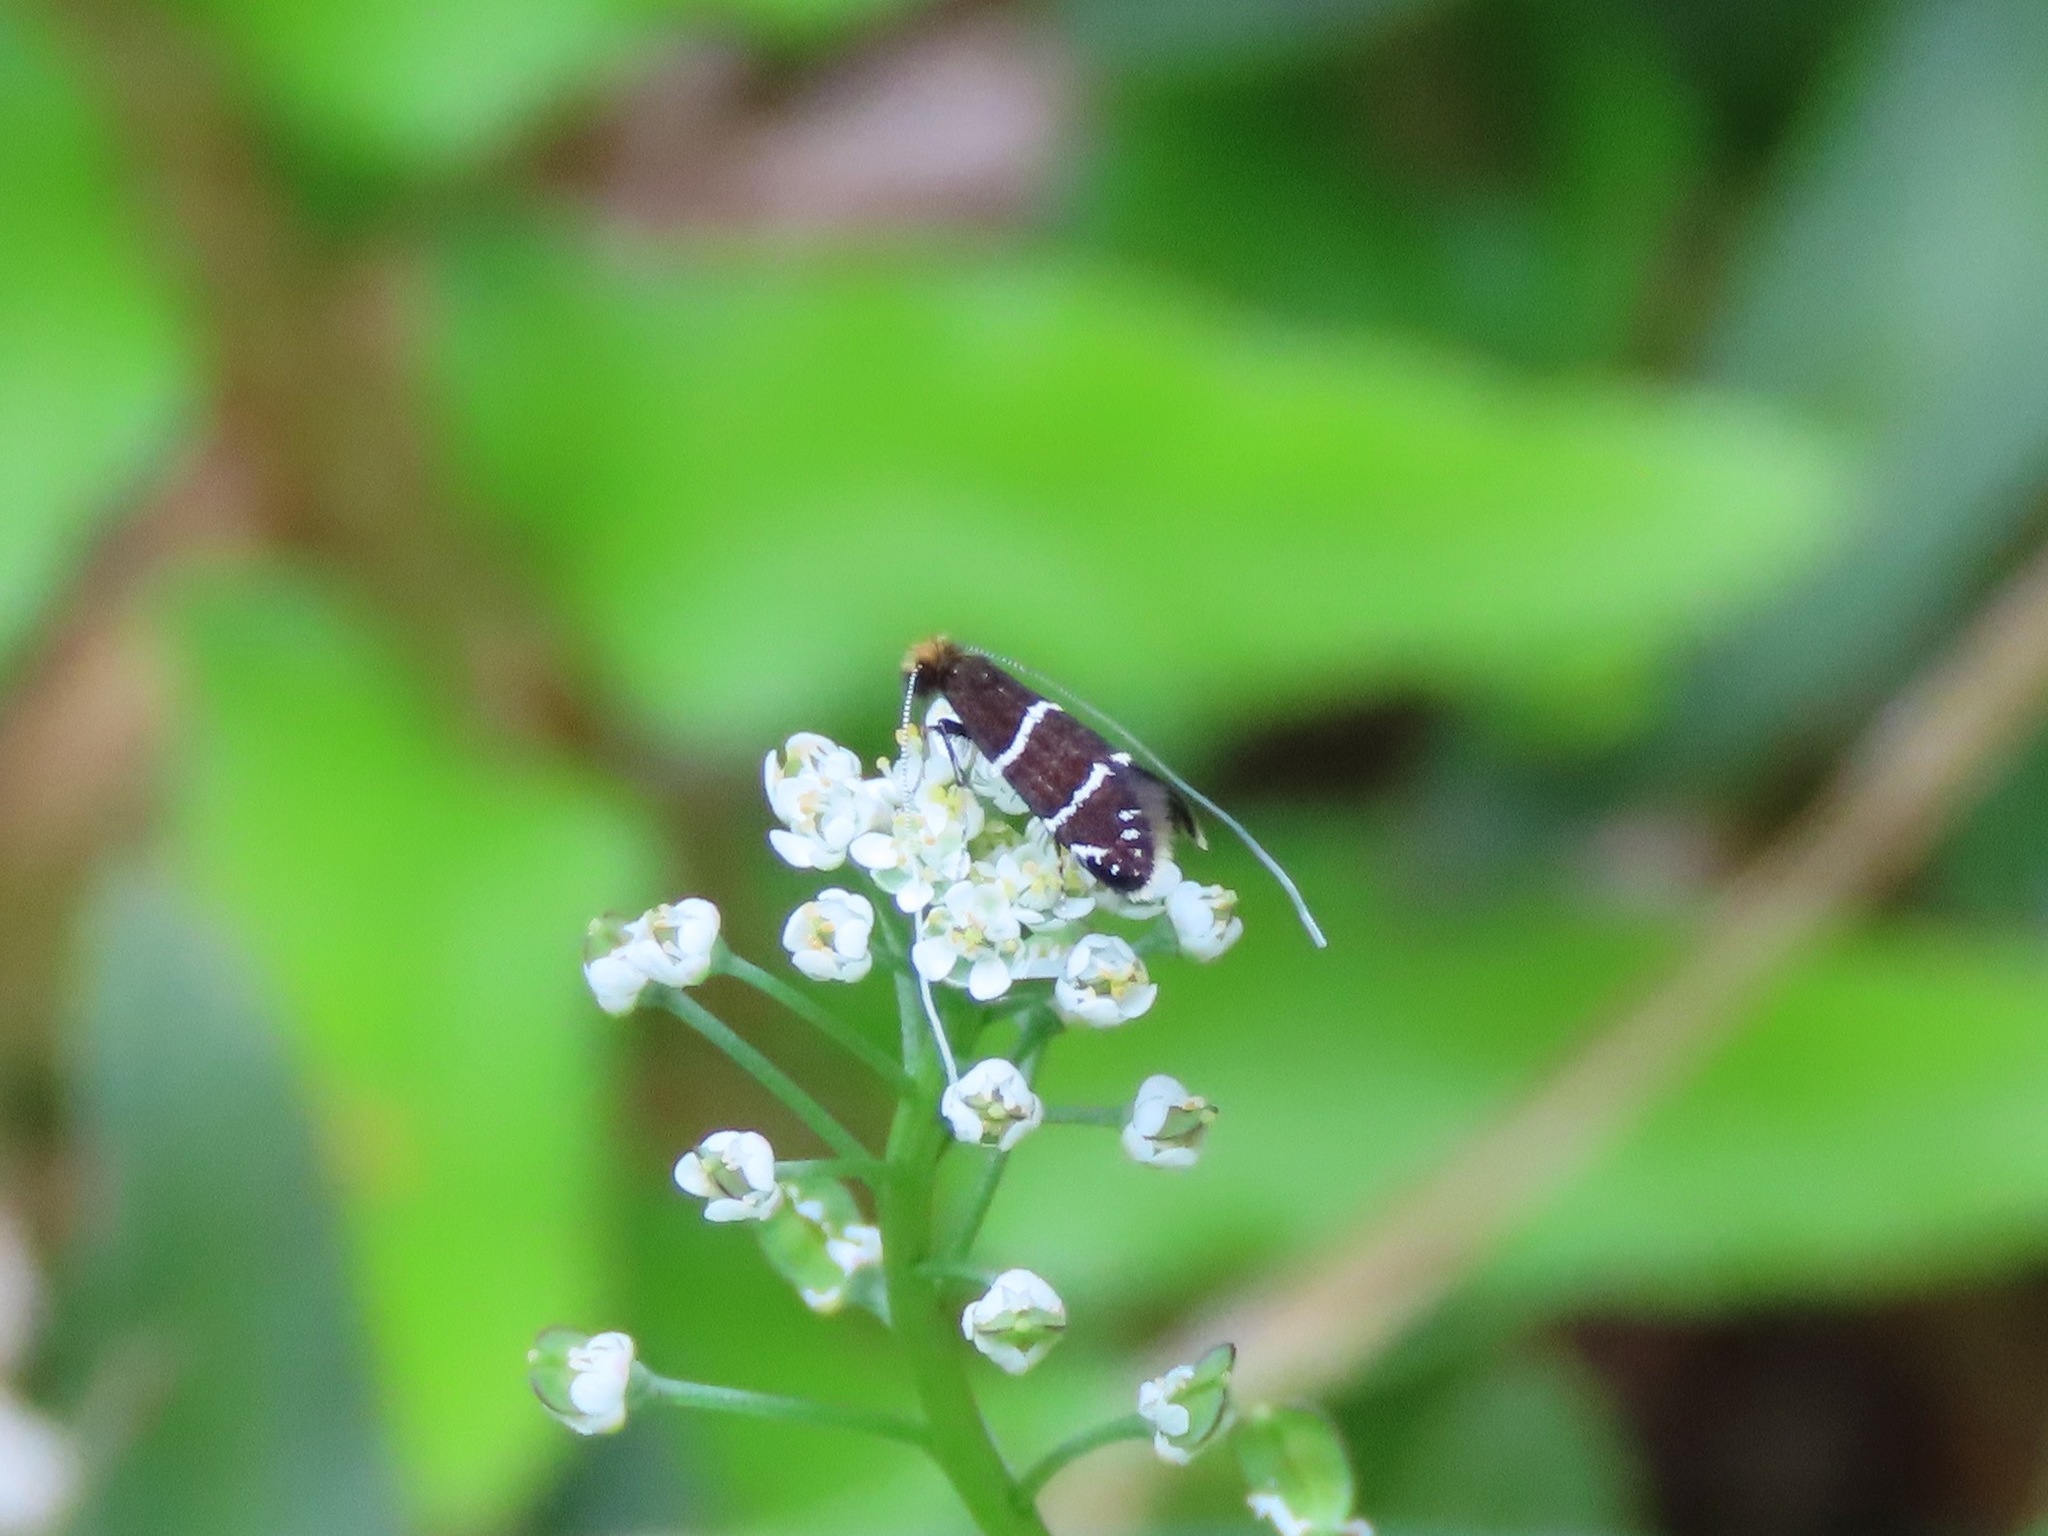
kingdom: Animalia
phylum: Arthropoda
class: Insecta
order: Lepidoptera
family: Adelidae
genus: Adela
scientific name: Adela septentrionella
